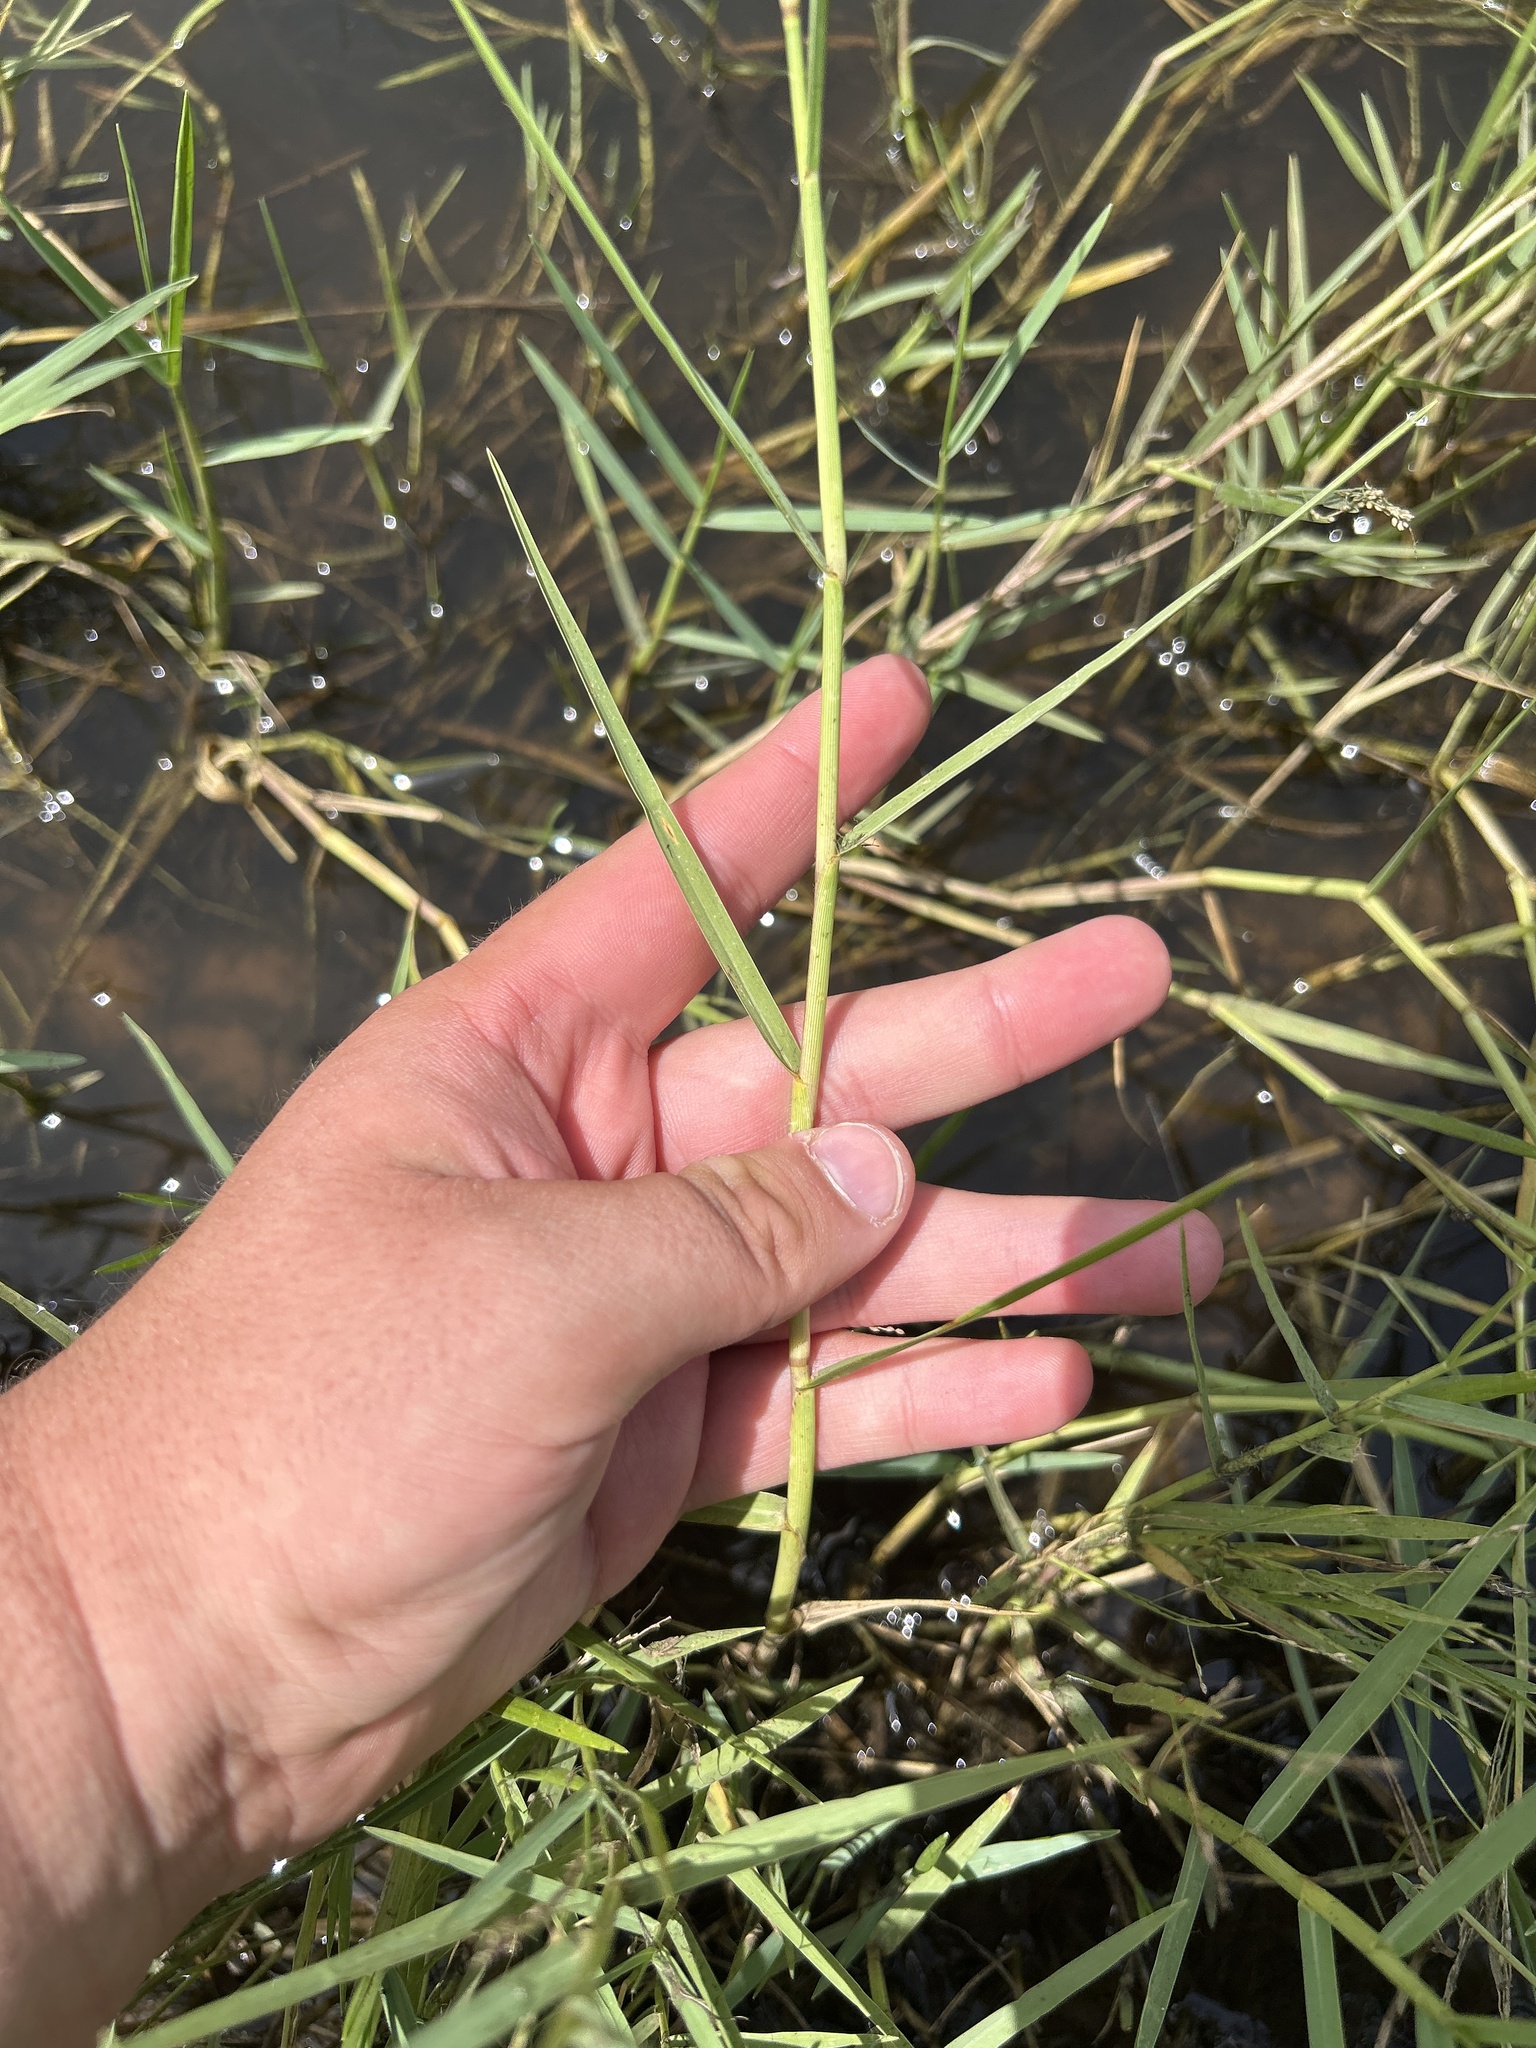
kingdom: Plantae
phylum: Tracheophyta
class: Liliopsida
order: Poales
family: Poaceae
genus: Panicum
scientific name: Panicum repens
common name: Torpedo grass
